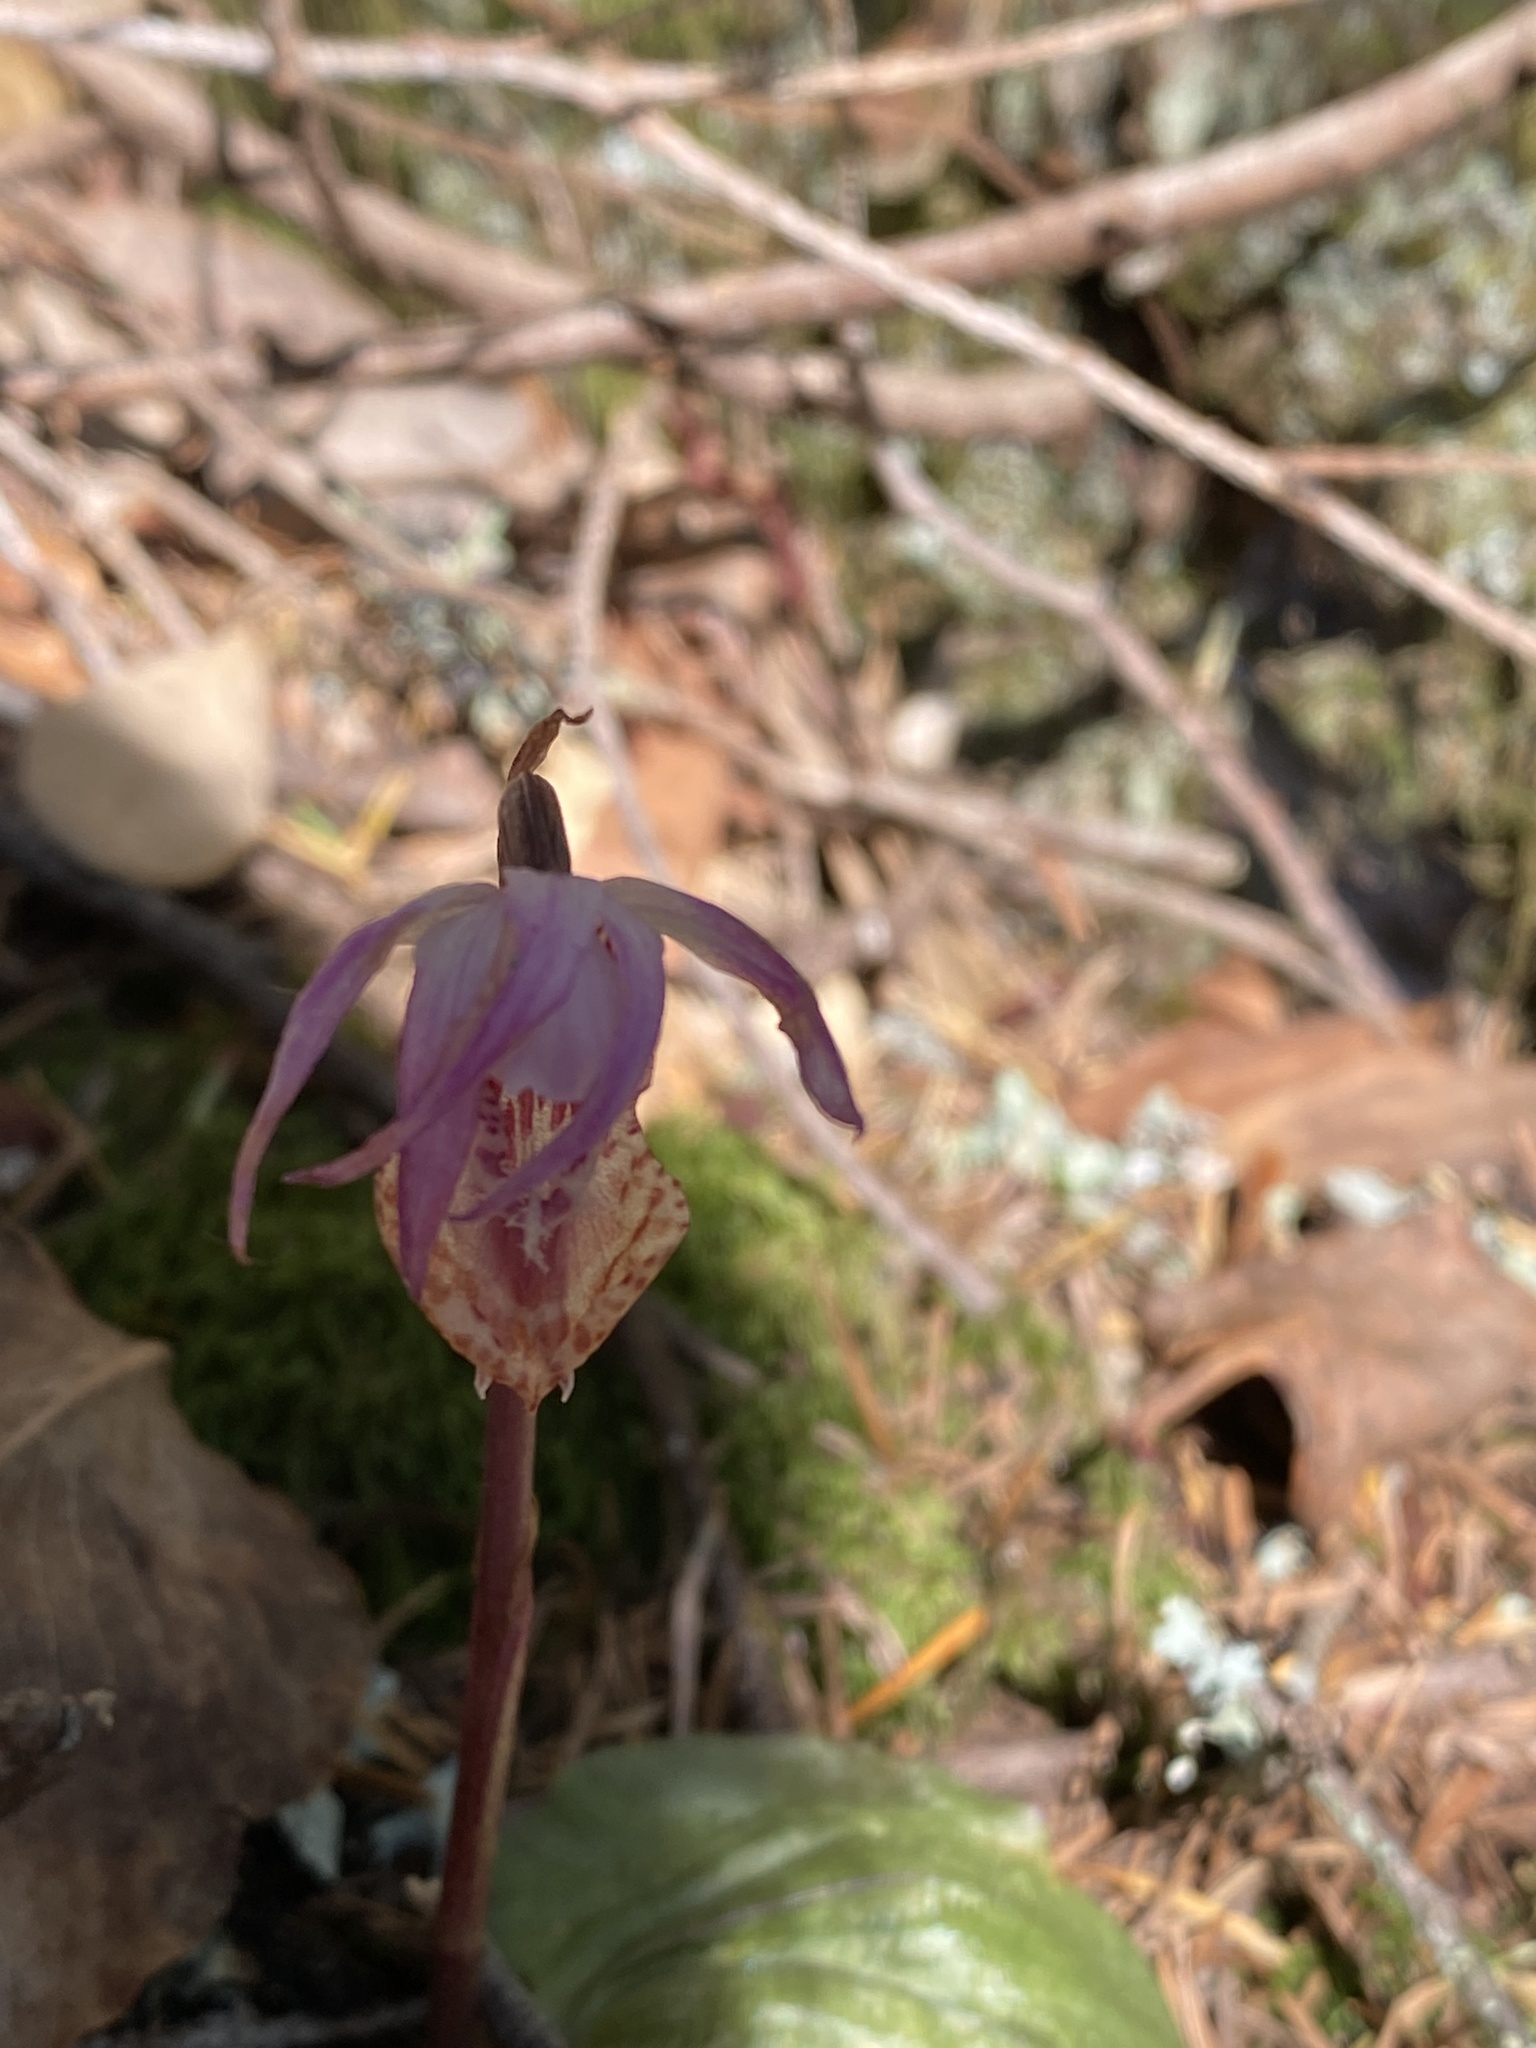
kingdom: Plantae
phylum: Tracheophyta
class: Liliopsida
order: Asparagales
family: Orchidaceae
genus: Calypso
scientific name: Calypso bulbosa
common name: Calypso
